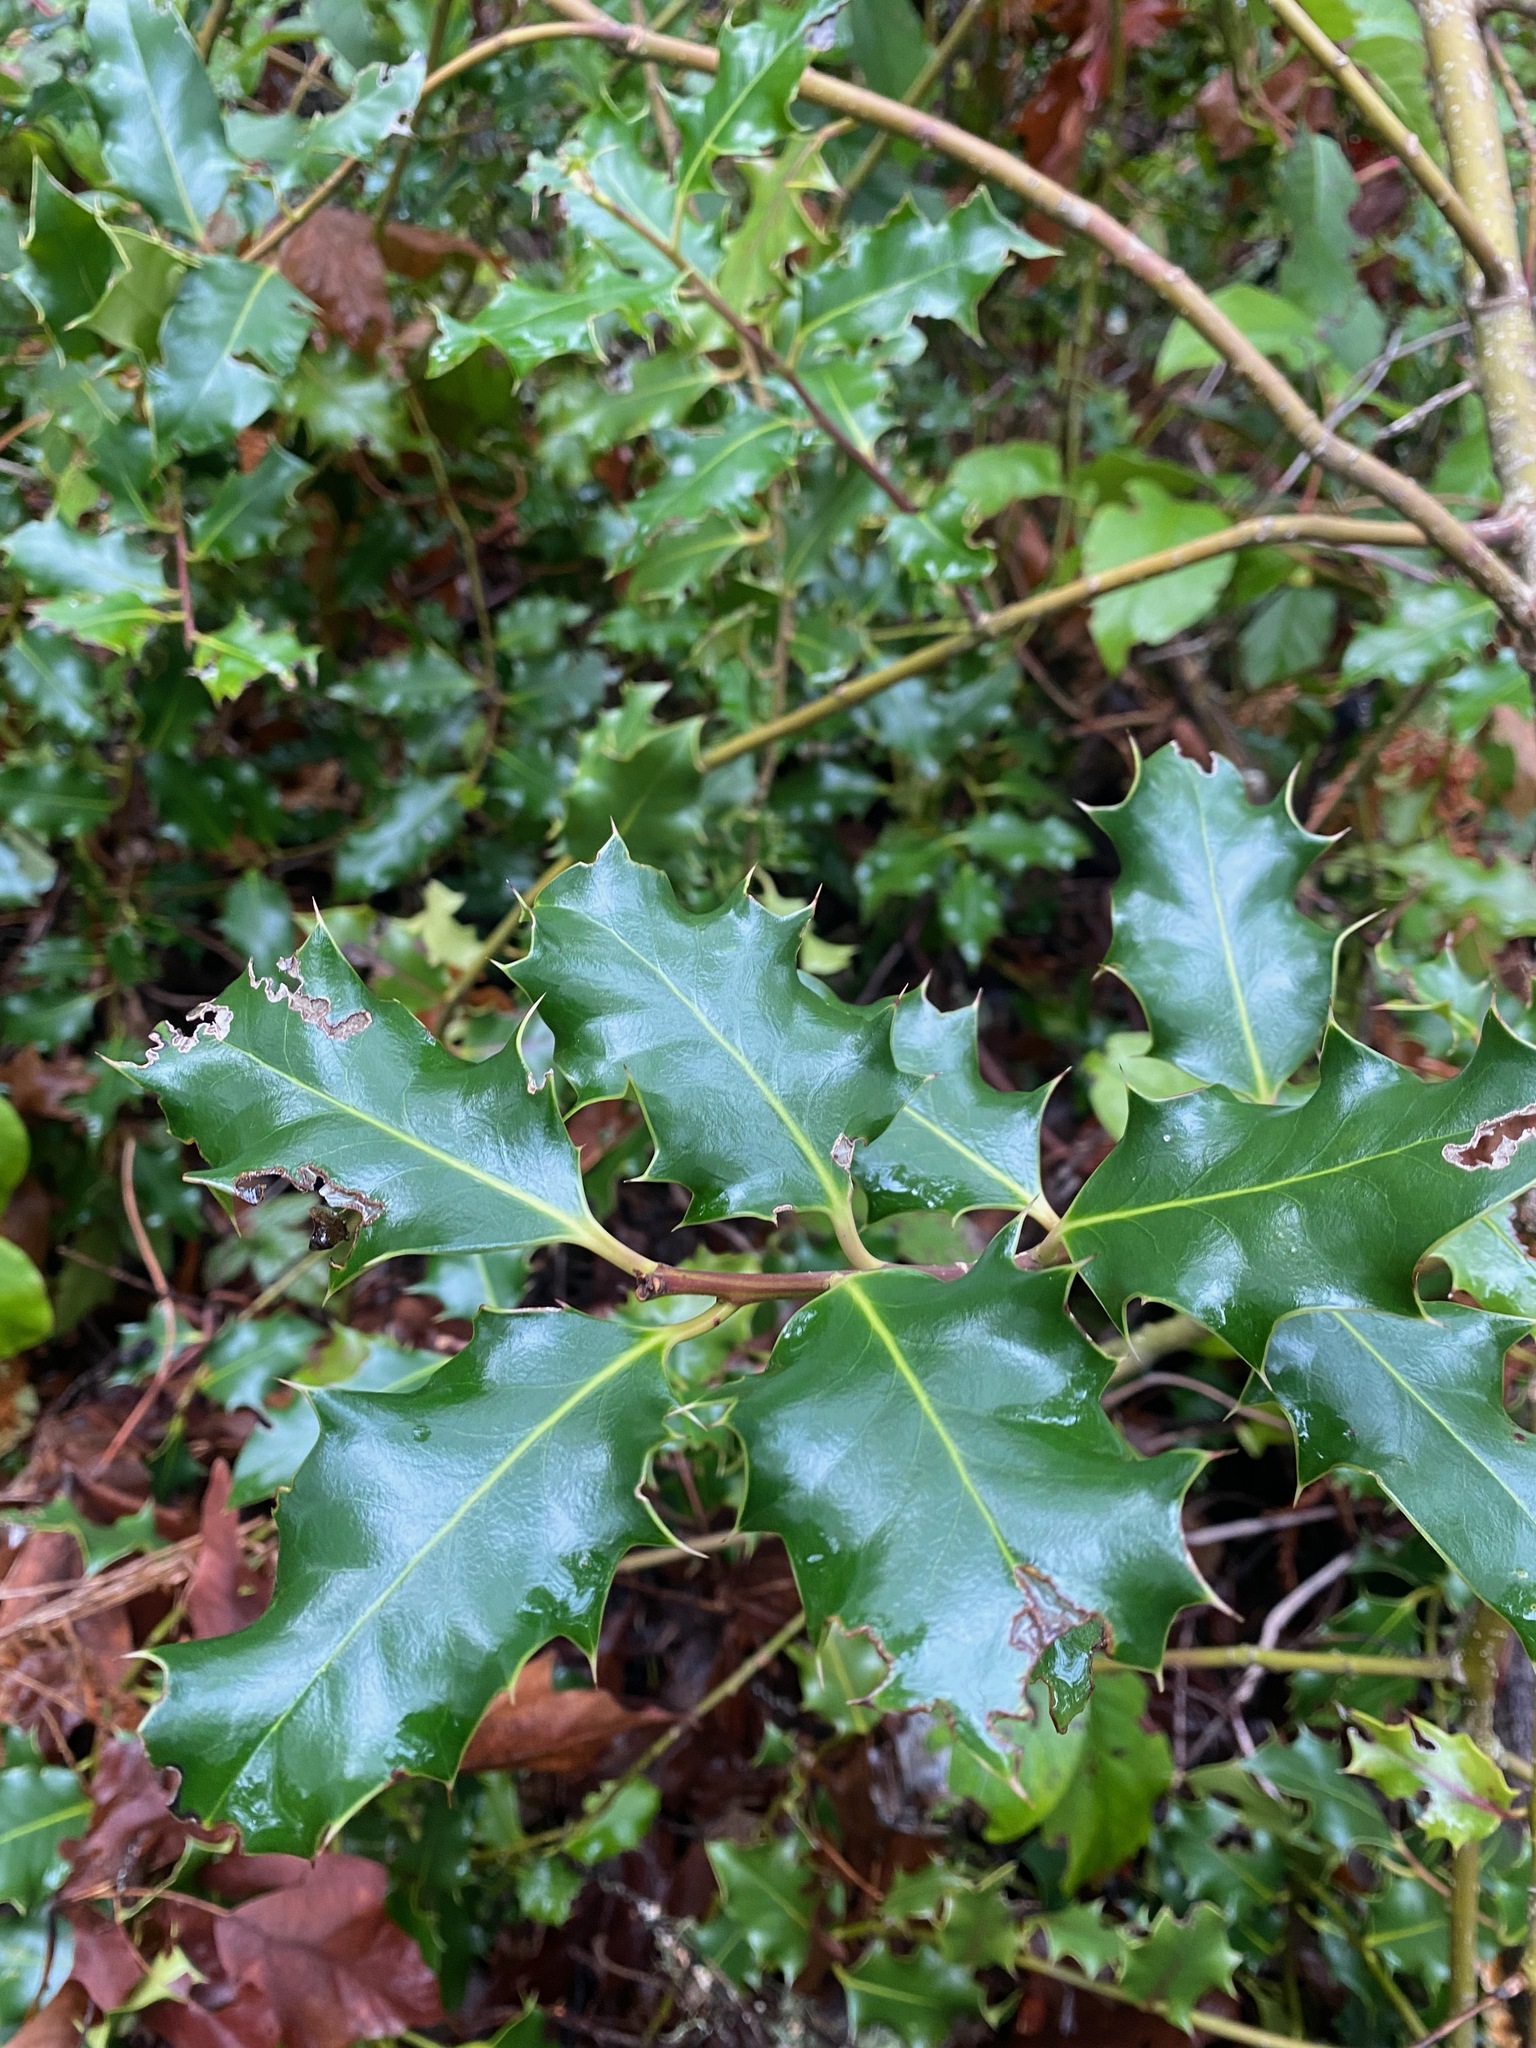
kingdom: Plantae
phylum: Tracheophyta
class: Magnoliopsida
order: Aquifoliales
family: Aquifoliaceae
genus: Ilex
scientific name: Ilex aquifolium
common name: English holly
